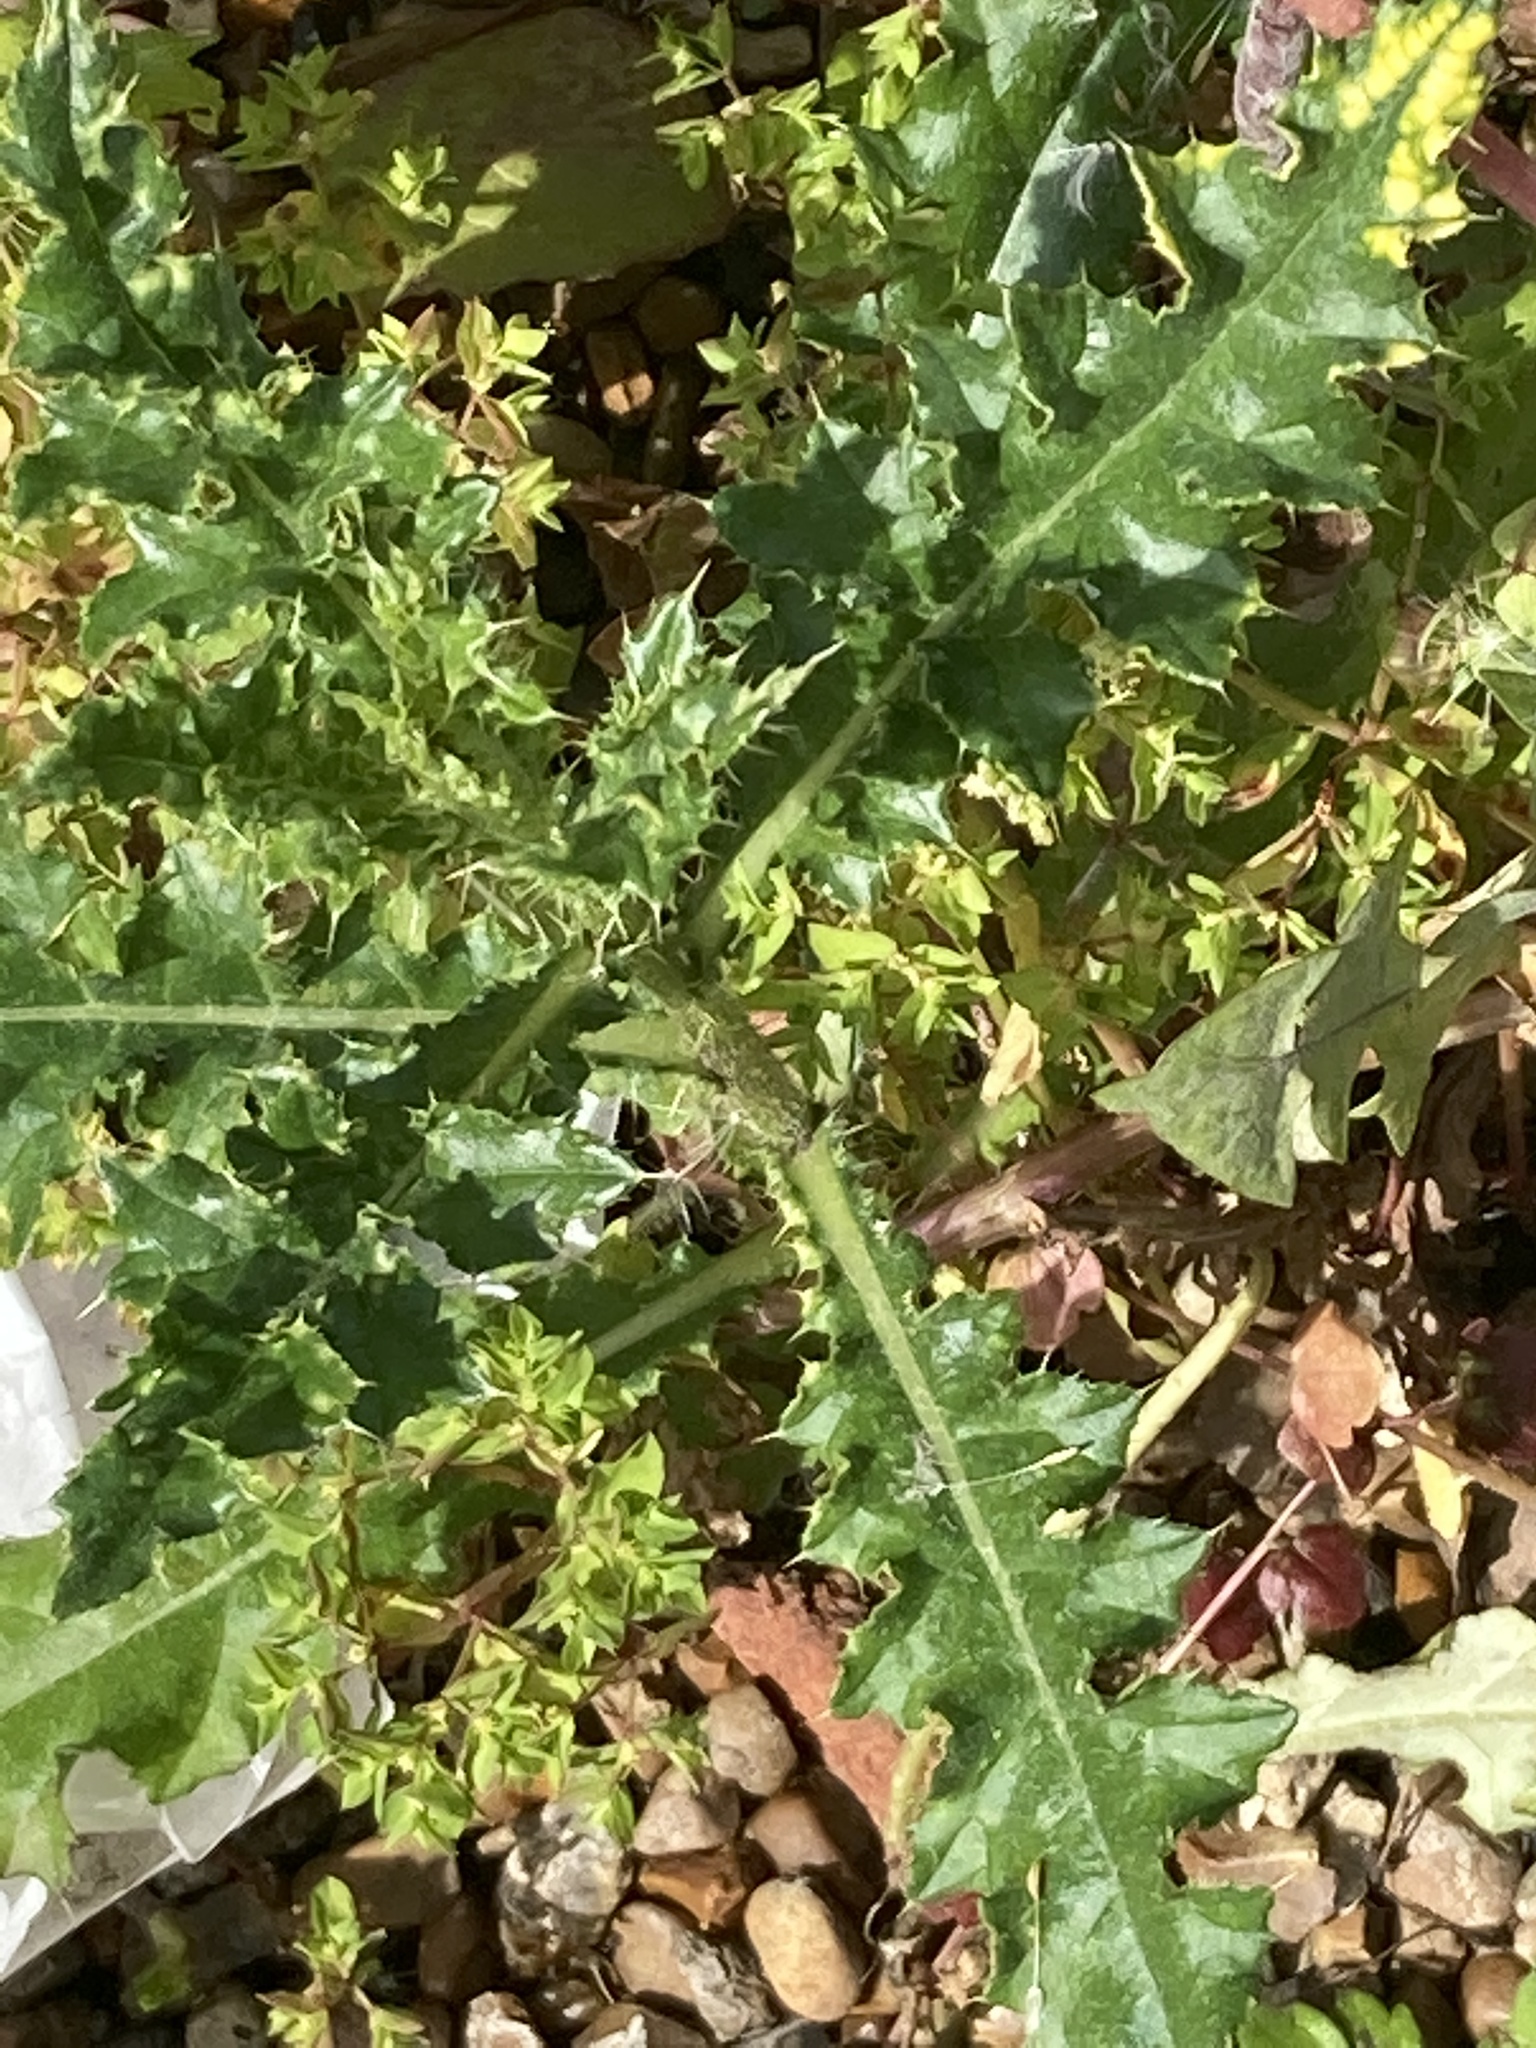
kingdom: Plantae
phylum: Tracheophyta
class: Magnoliopsida
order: Asterales
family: Asteraceae
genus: Cirsium
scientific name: Cirsium arvense
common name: Creeping thistle
